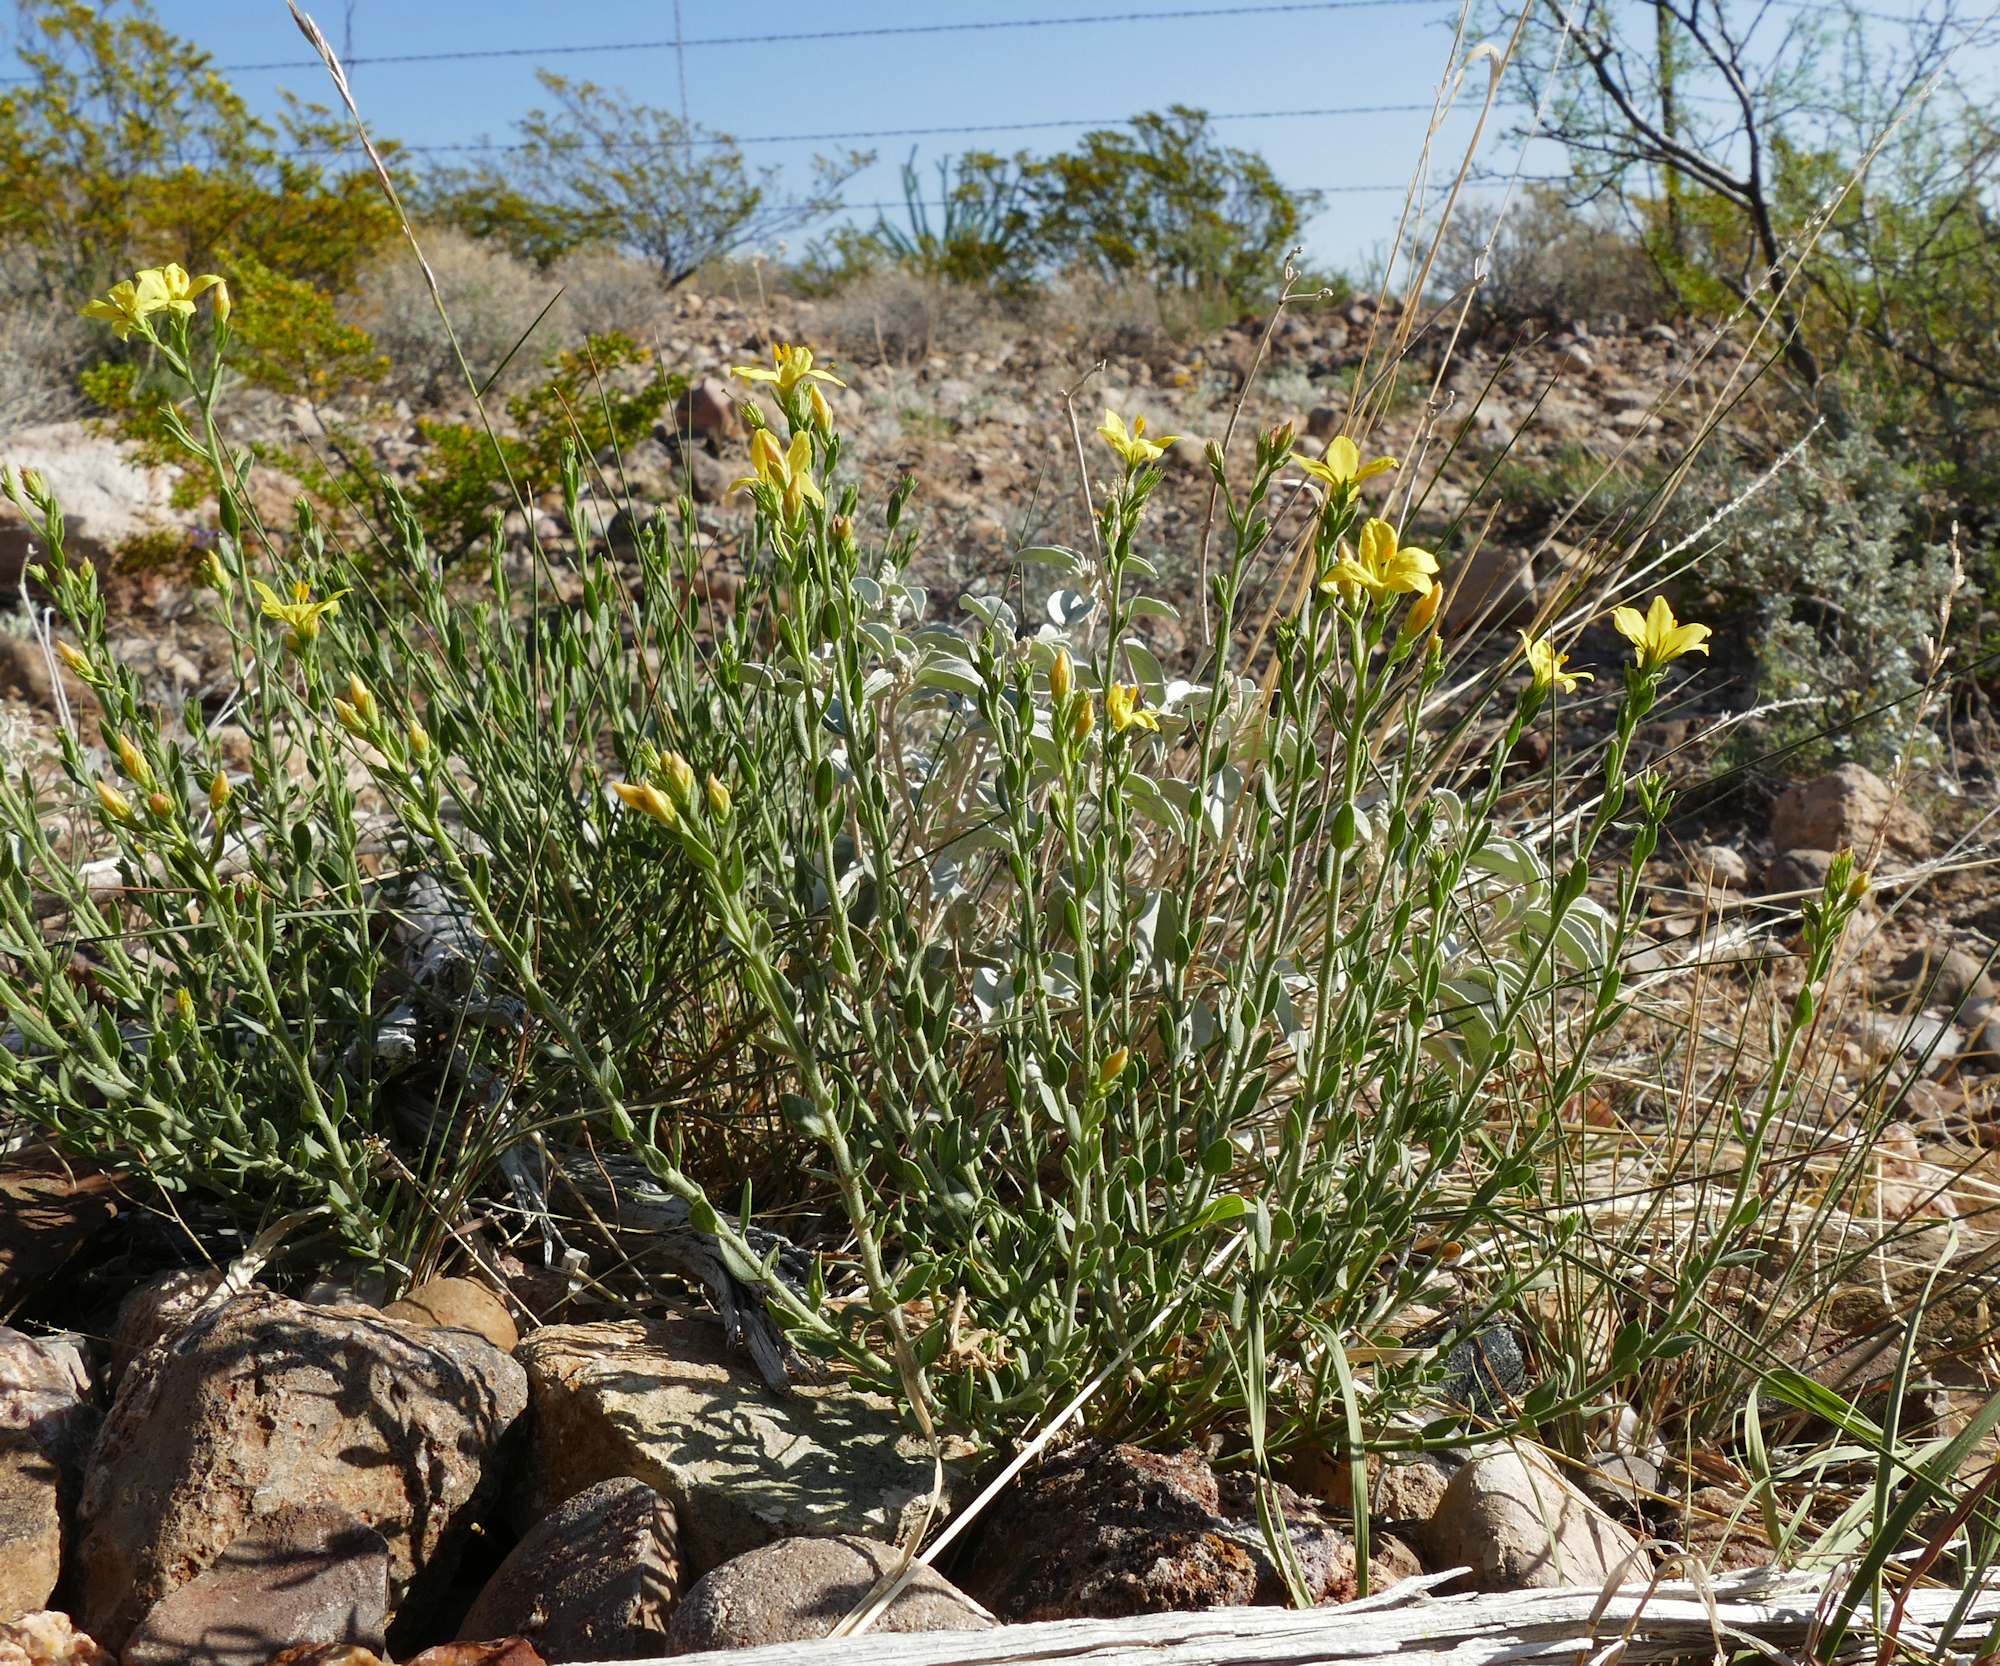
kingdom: Plantae
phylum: Tracheophyta
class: Magnoliopsida
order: Lamiales
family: Oleaceae
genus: Menodora
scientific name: Menodora scabra
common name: Rough menodora
